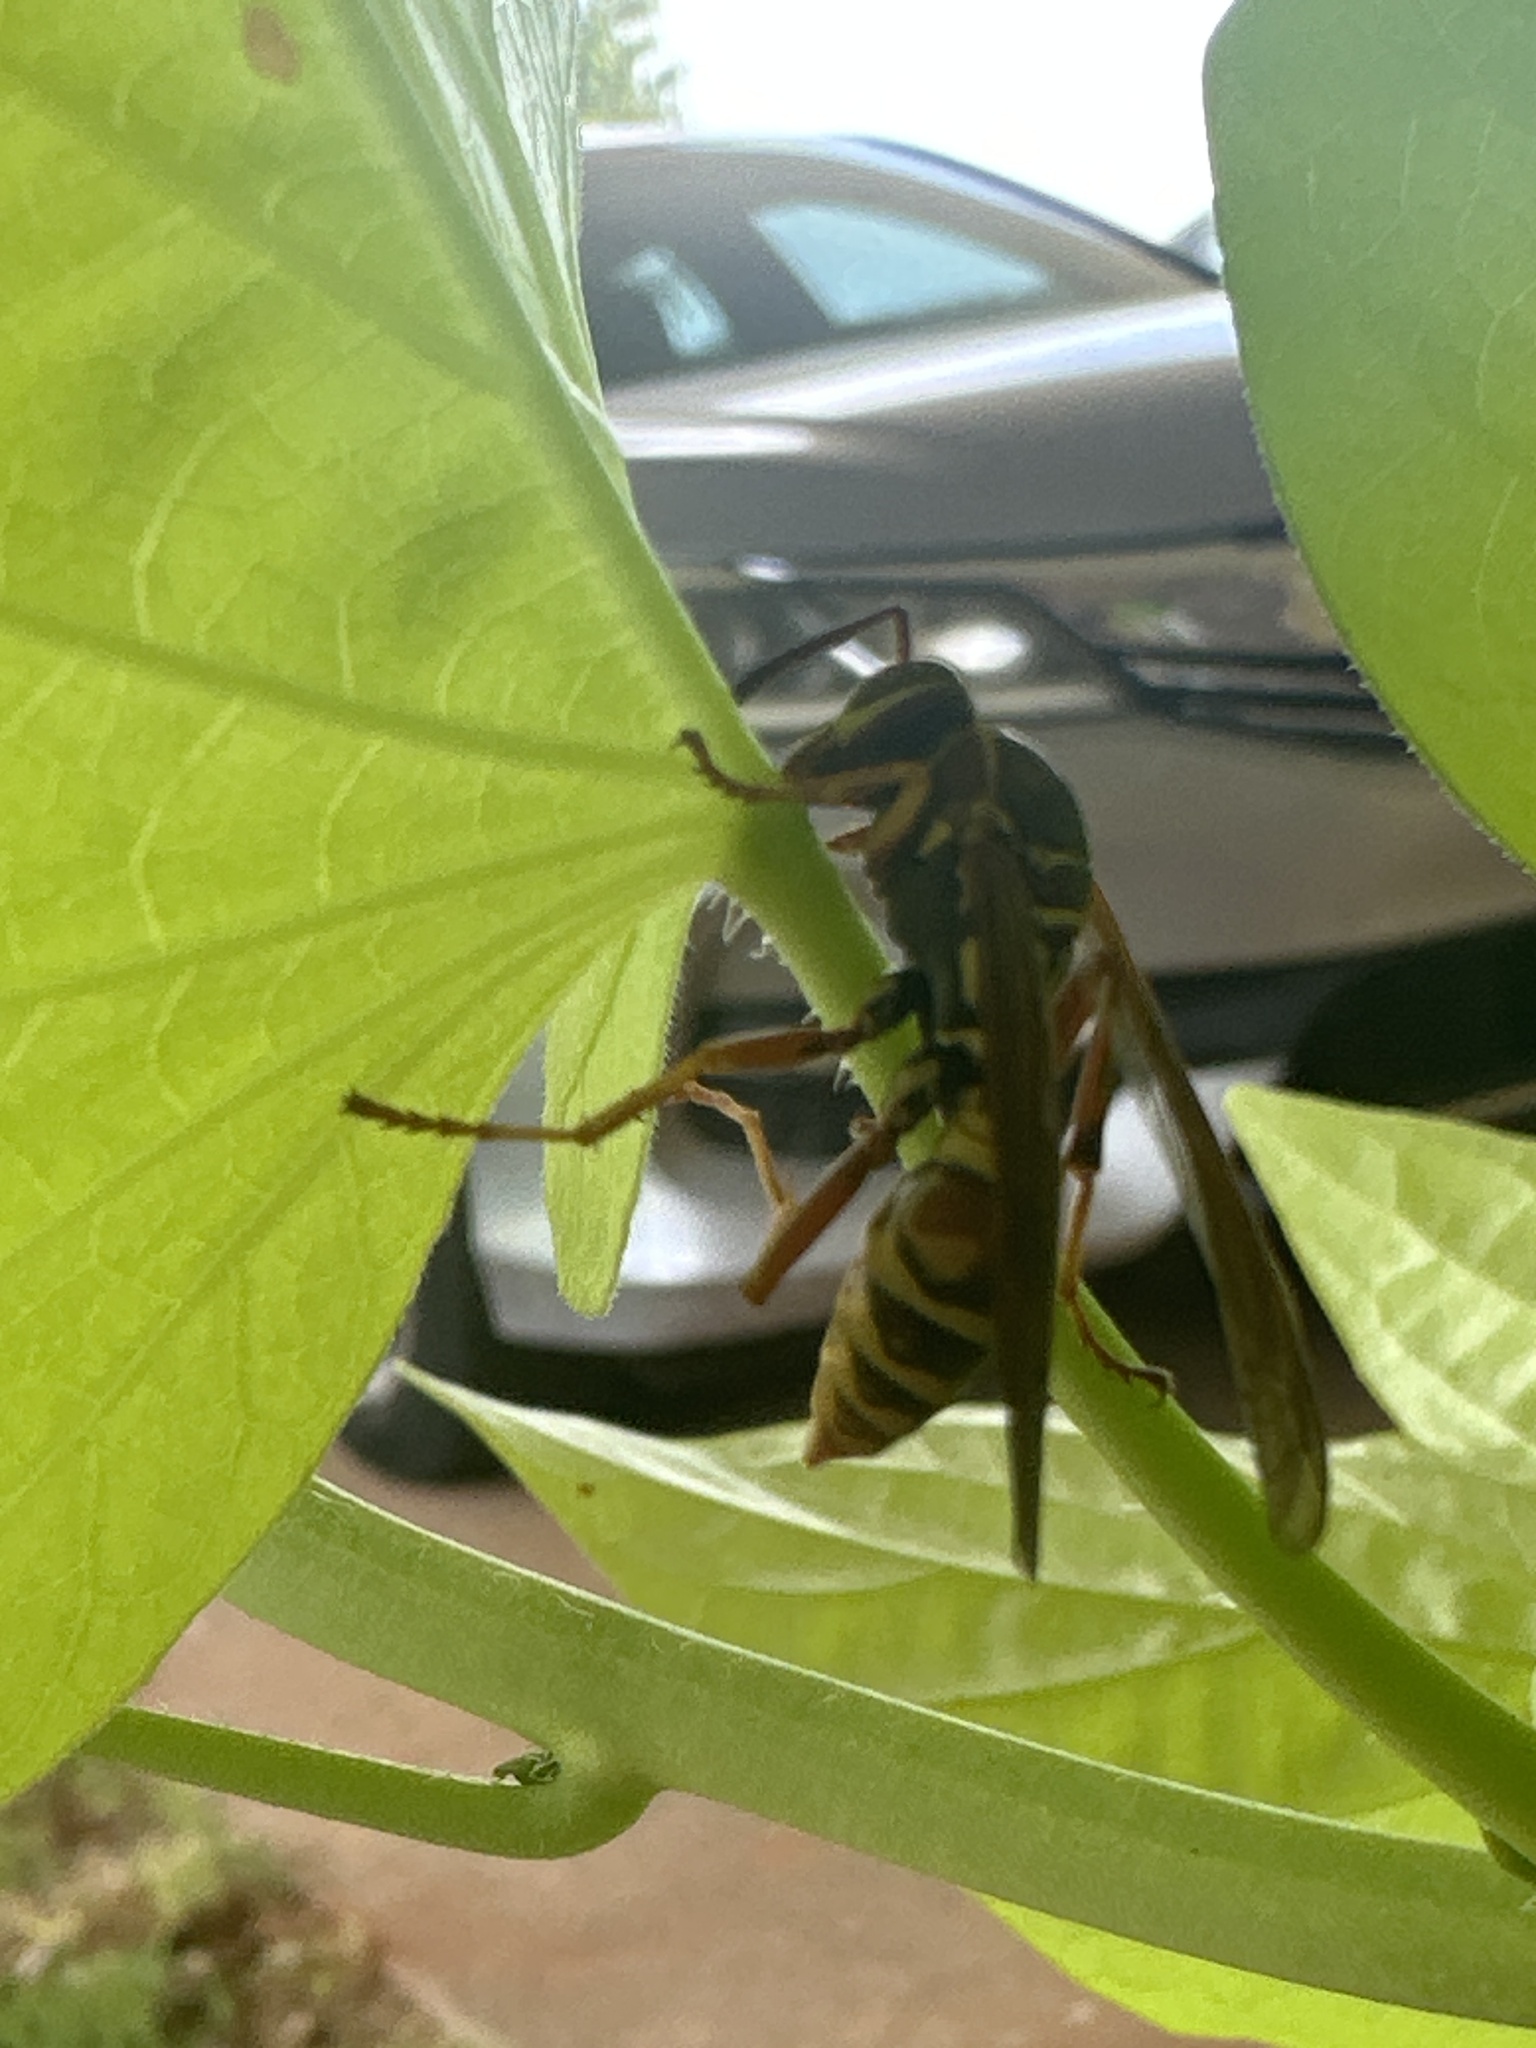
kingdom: Animalia
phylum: Arthropoda
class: Insecta
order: Hymenoptera
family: Eumenidae
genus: Polistes
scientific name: Polistes fuscatus
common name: Dark paper wasp
